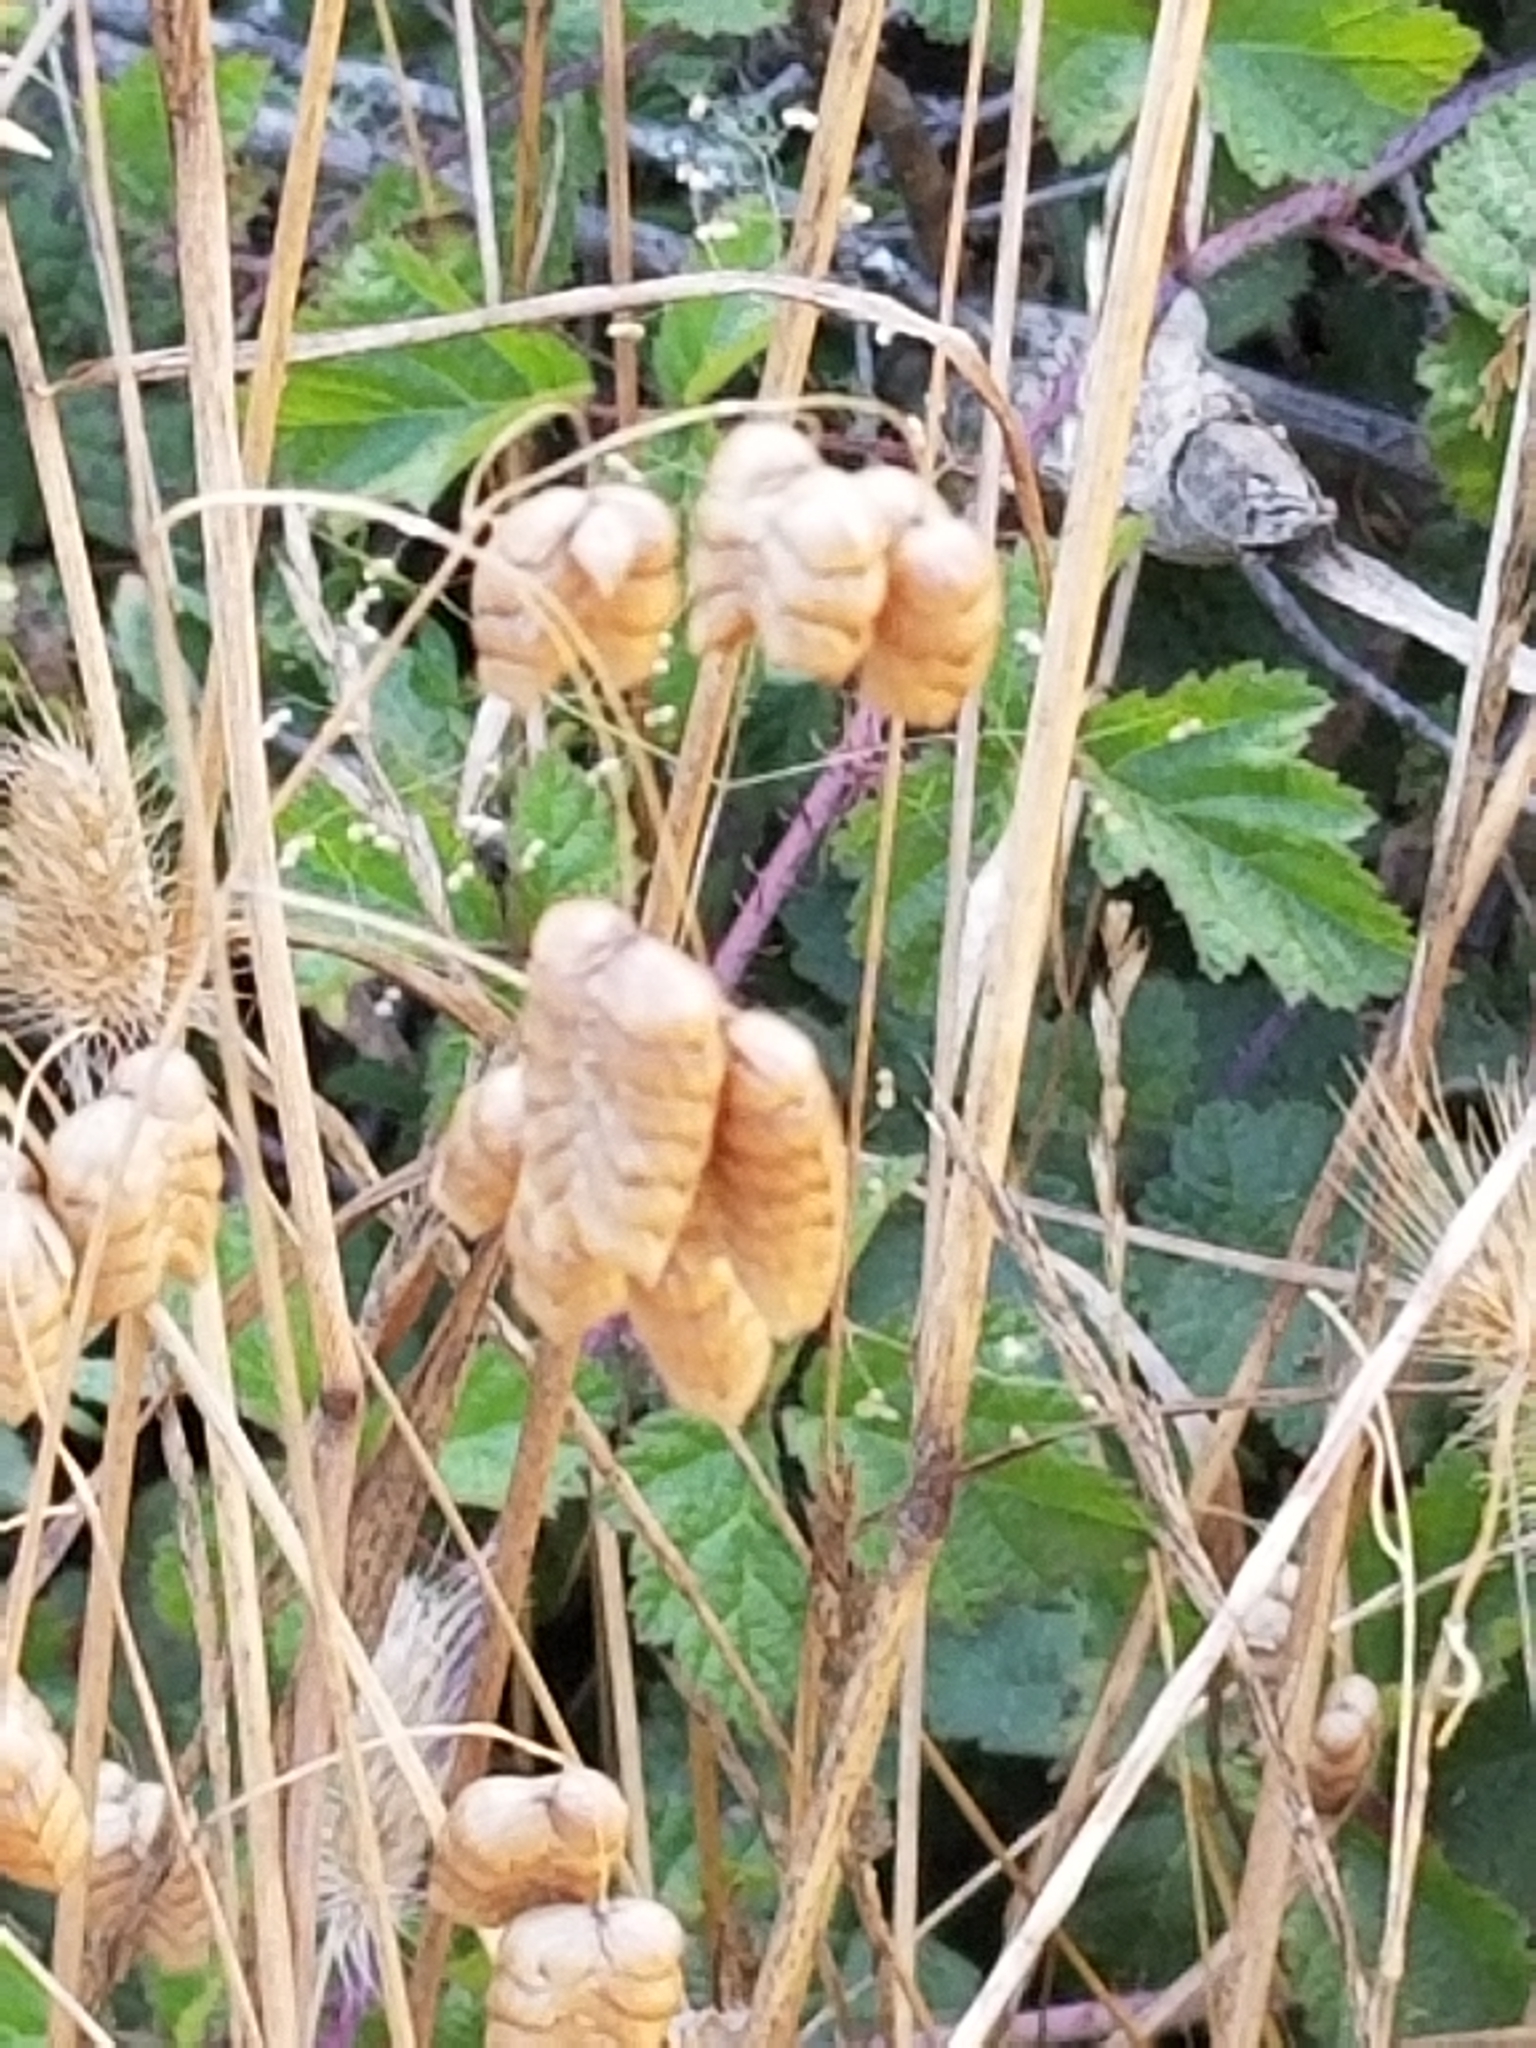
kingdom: Plantae
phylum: Tracheophyta
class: Liliopsida
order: Poales
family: Poaceae
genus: Briza
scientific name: Briza maxima
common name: Big quakinggrass
